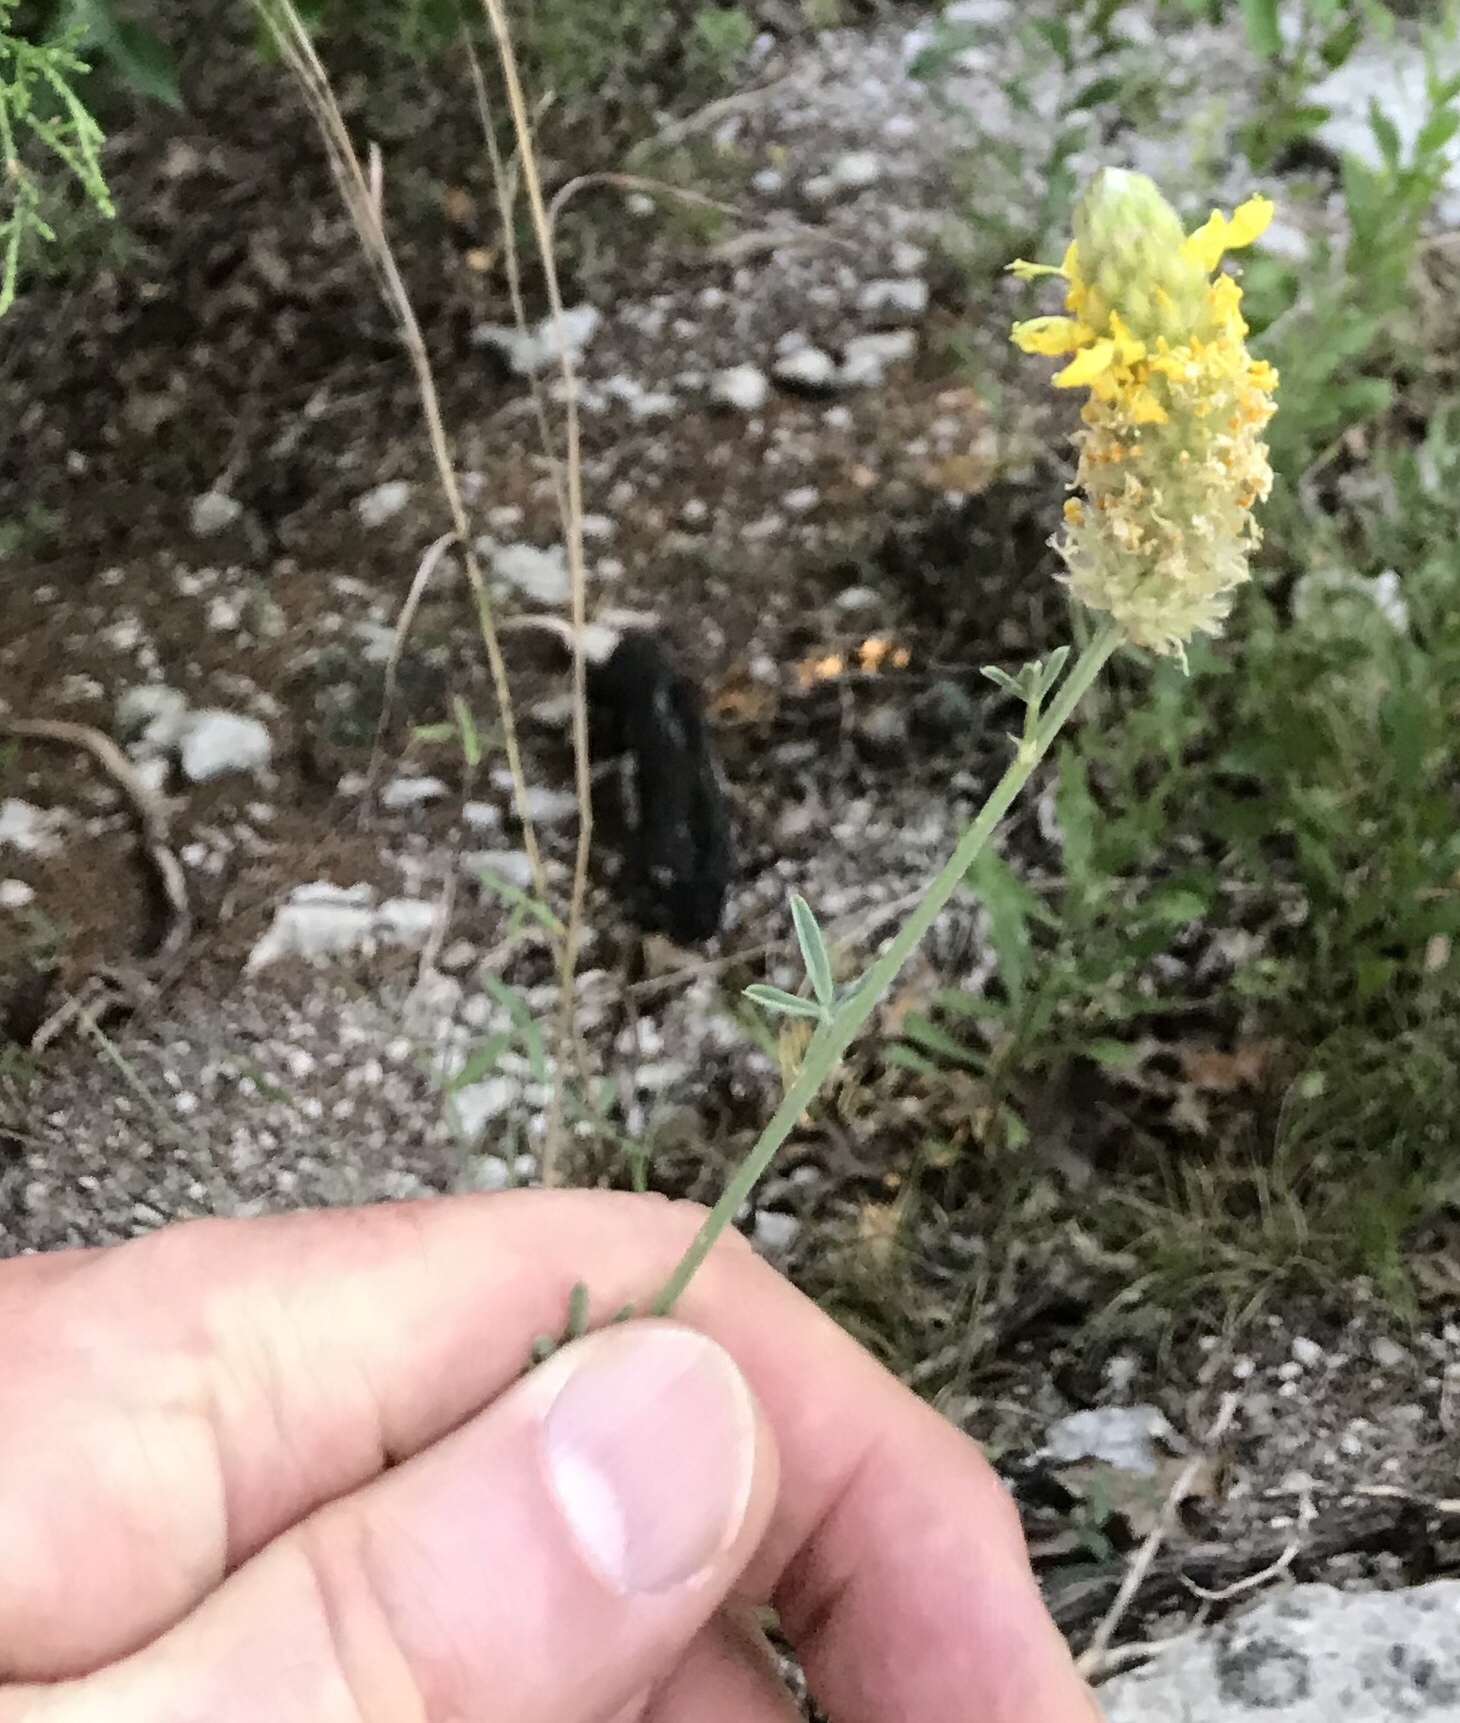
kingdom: Plantae
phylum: Tracheophyta
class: Magnoliopsida
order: Fabales
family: Fabaceae
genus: Dalea
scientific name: Dalea aurea
